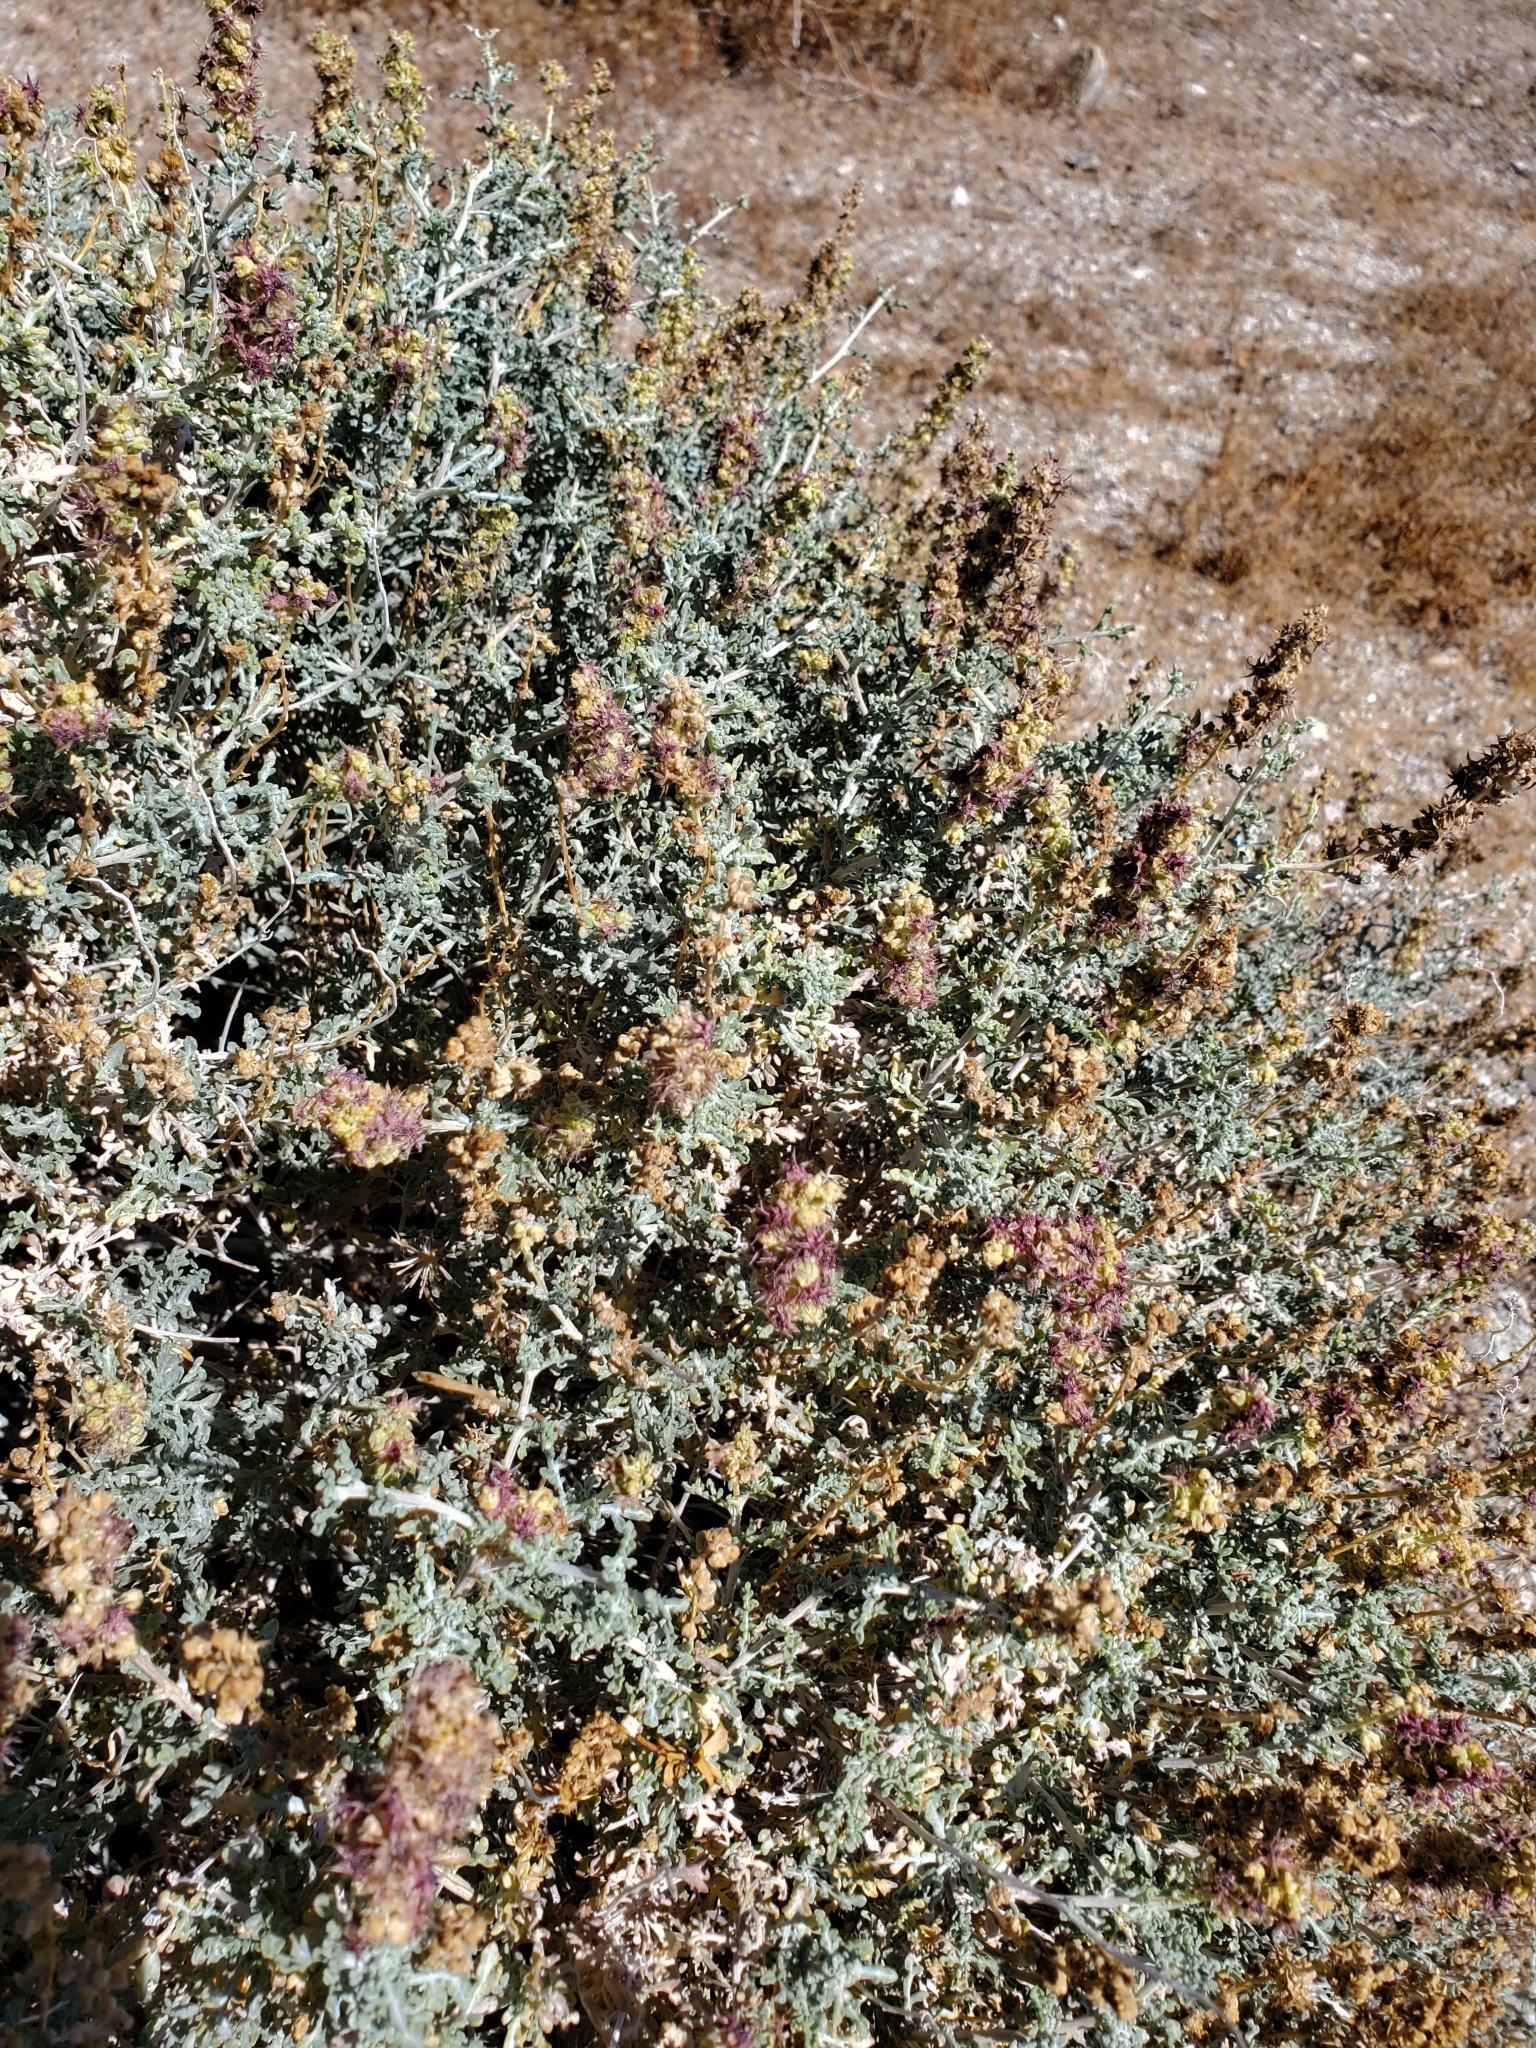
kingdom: Plantae
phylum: Tracheophyta
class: Magnoliopsida
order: Asterales
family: Asteraceae
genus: Ambrosia
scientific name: Ambrosia dumosa
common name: Bur-sage
